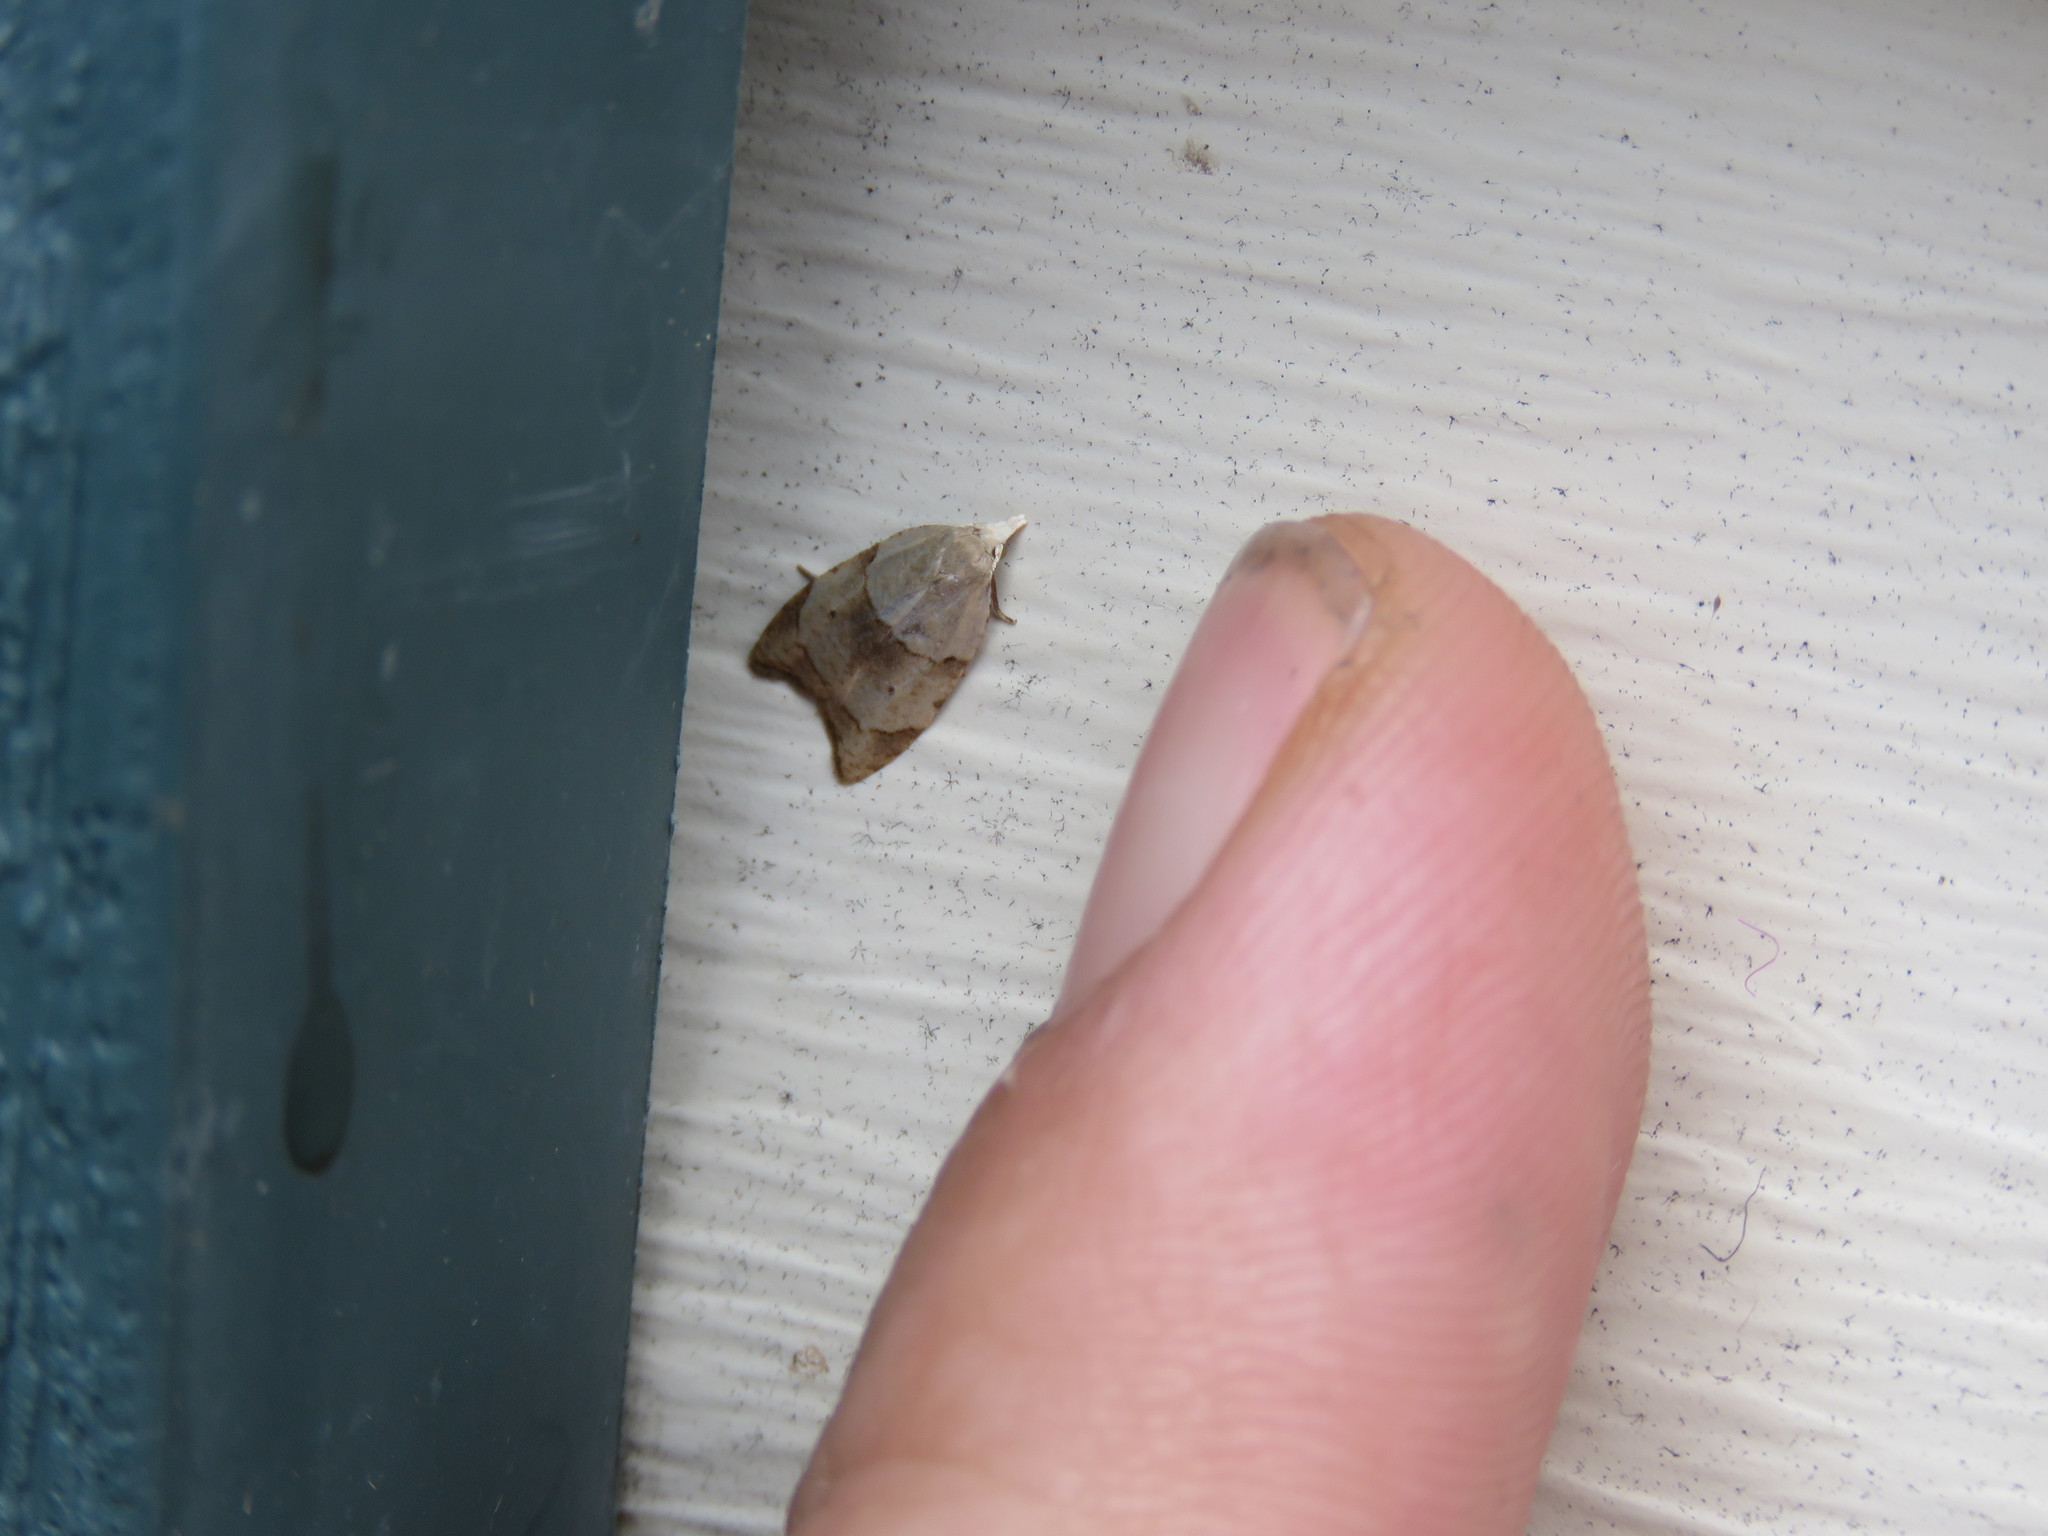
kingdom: Animalia
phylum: Arthropoda
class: Insecta
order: Lepidoptera
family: Tortricidae
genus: Coelostathma
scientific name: Coelostathma discopunctana
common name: Batman moth
